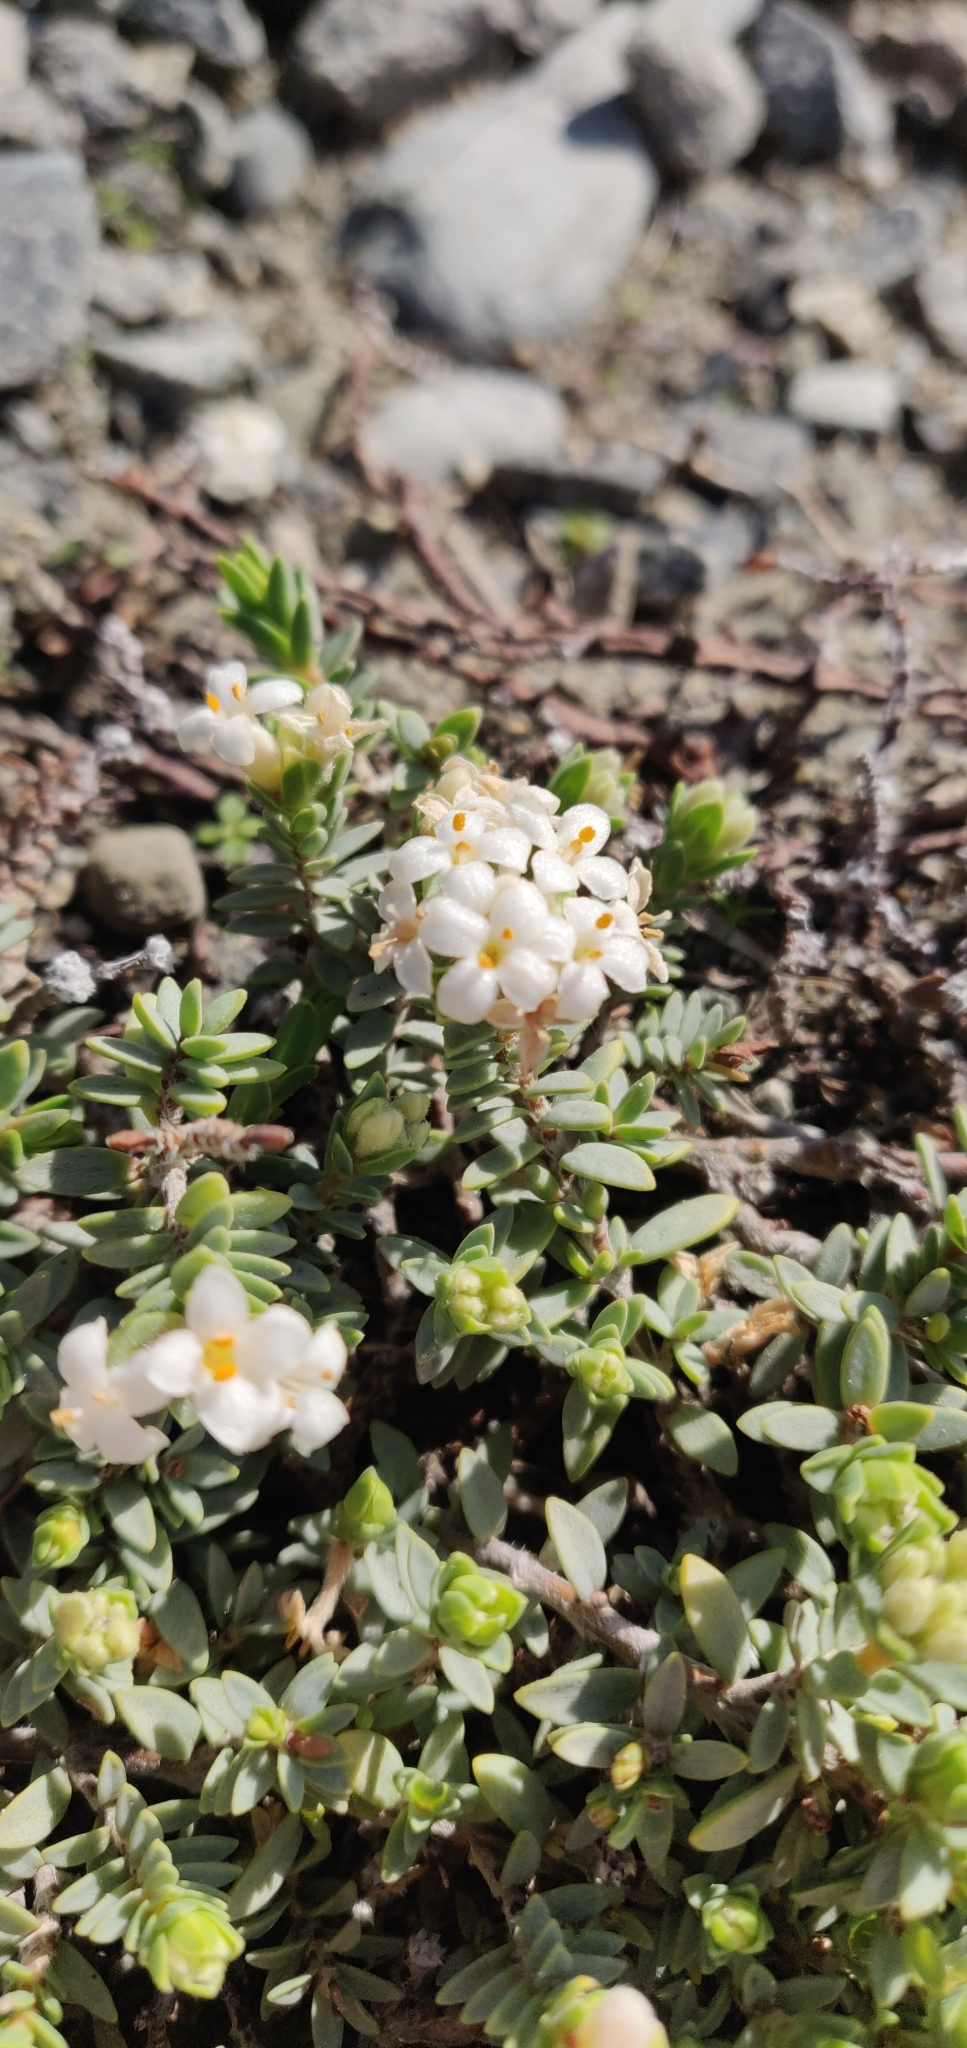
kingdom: Plantae
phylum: Tracheophyta
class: Magnoliopsida
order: Malvales
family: Thymelaeaceae
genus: Pimelea
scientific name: Pimelea prostrata
